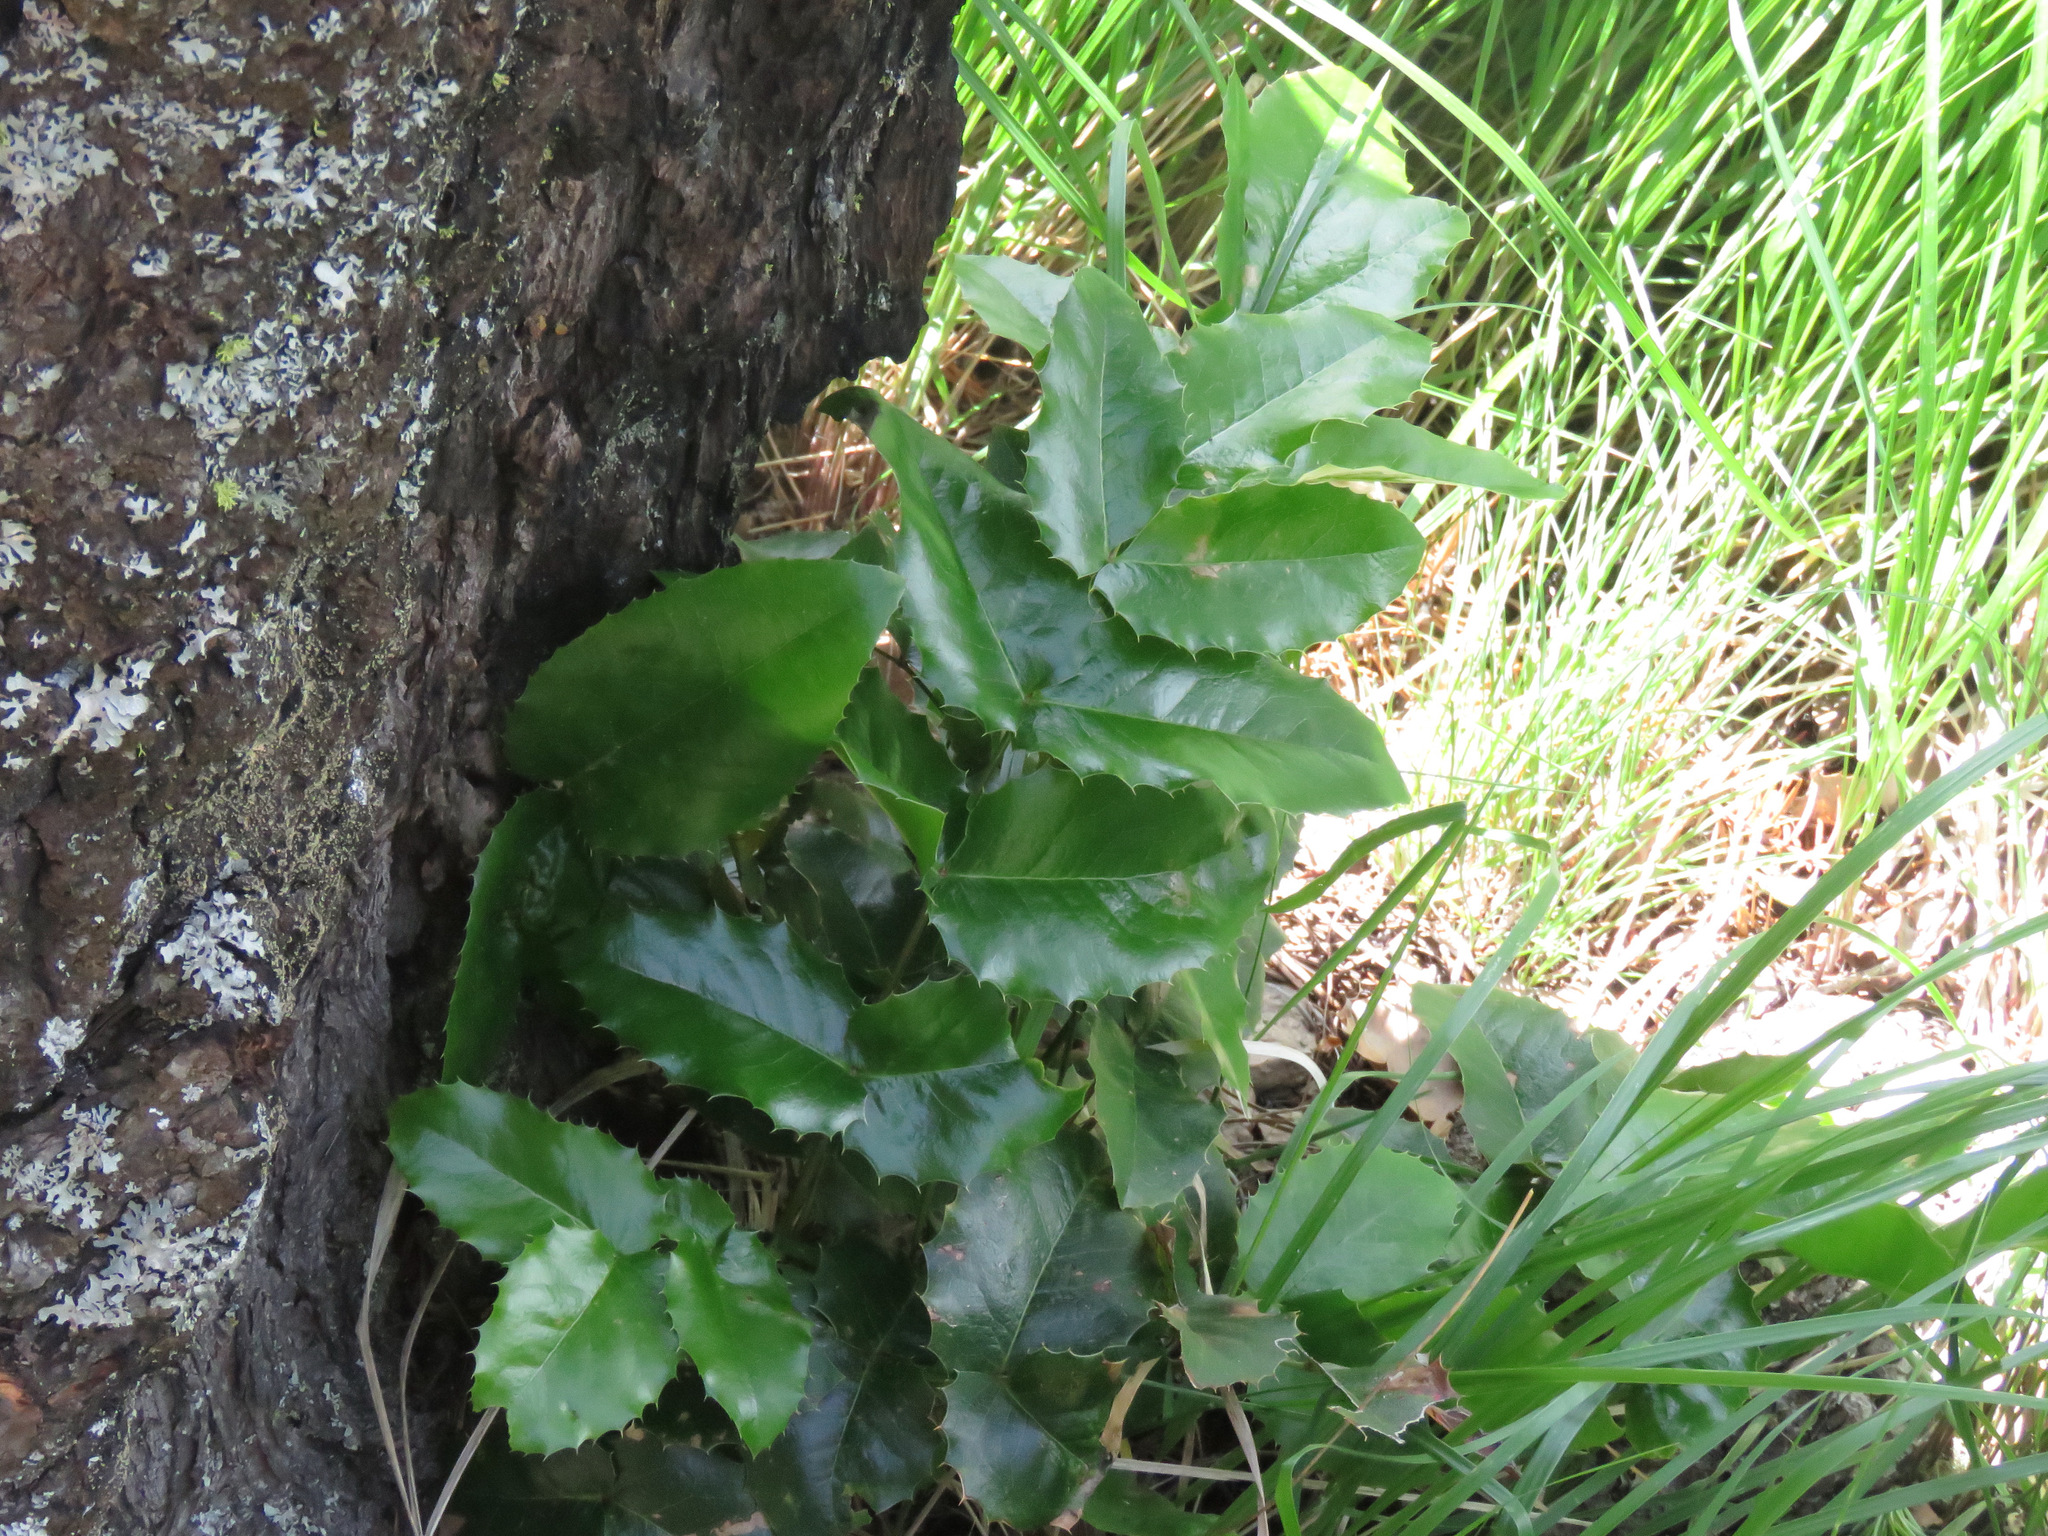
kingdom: Plantae
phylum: Tracheophyta
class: Magnoliopsida
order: Ranunculales
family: Berberidaceae
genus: Mahonia
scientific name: Mahonia aquifolium
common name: Oregon-grape
